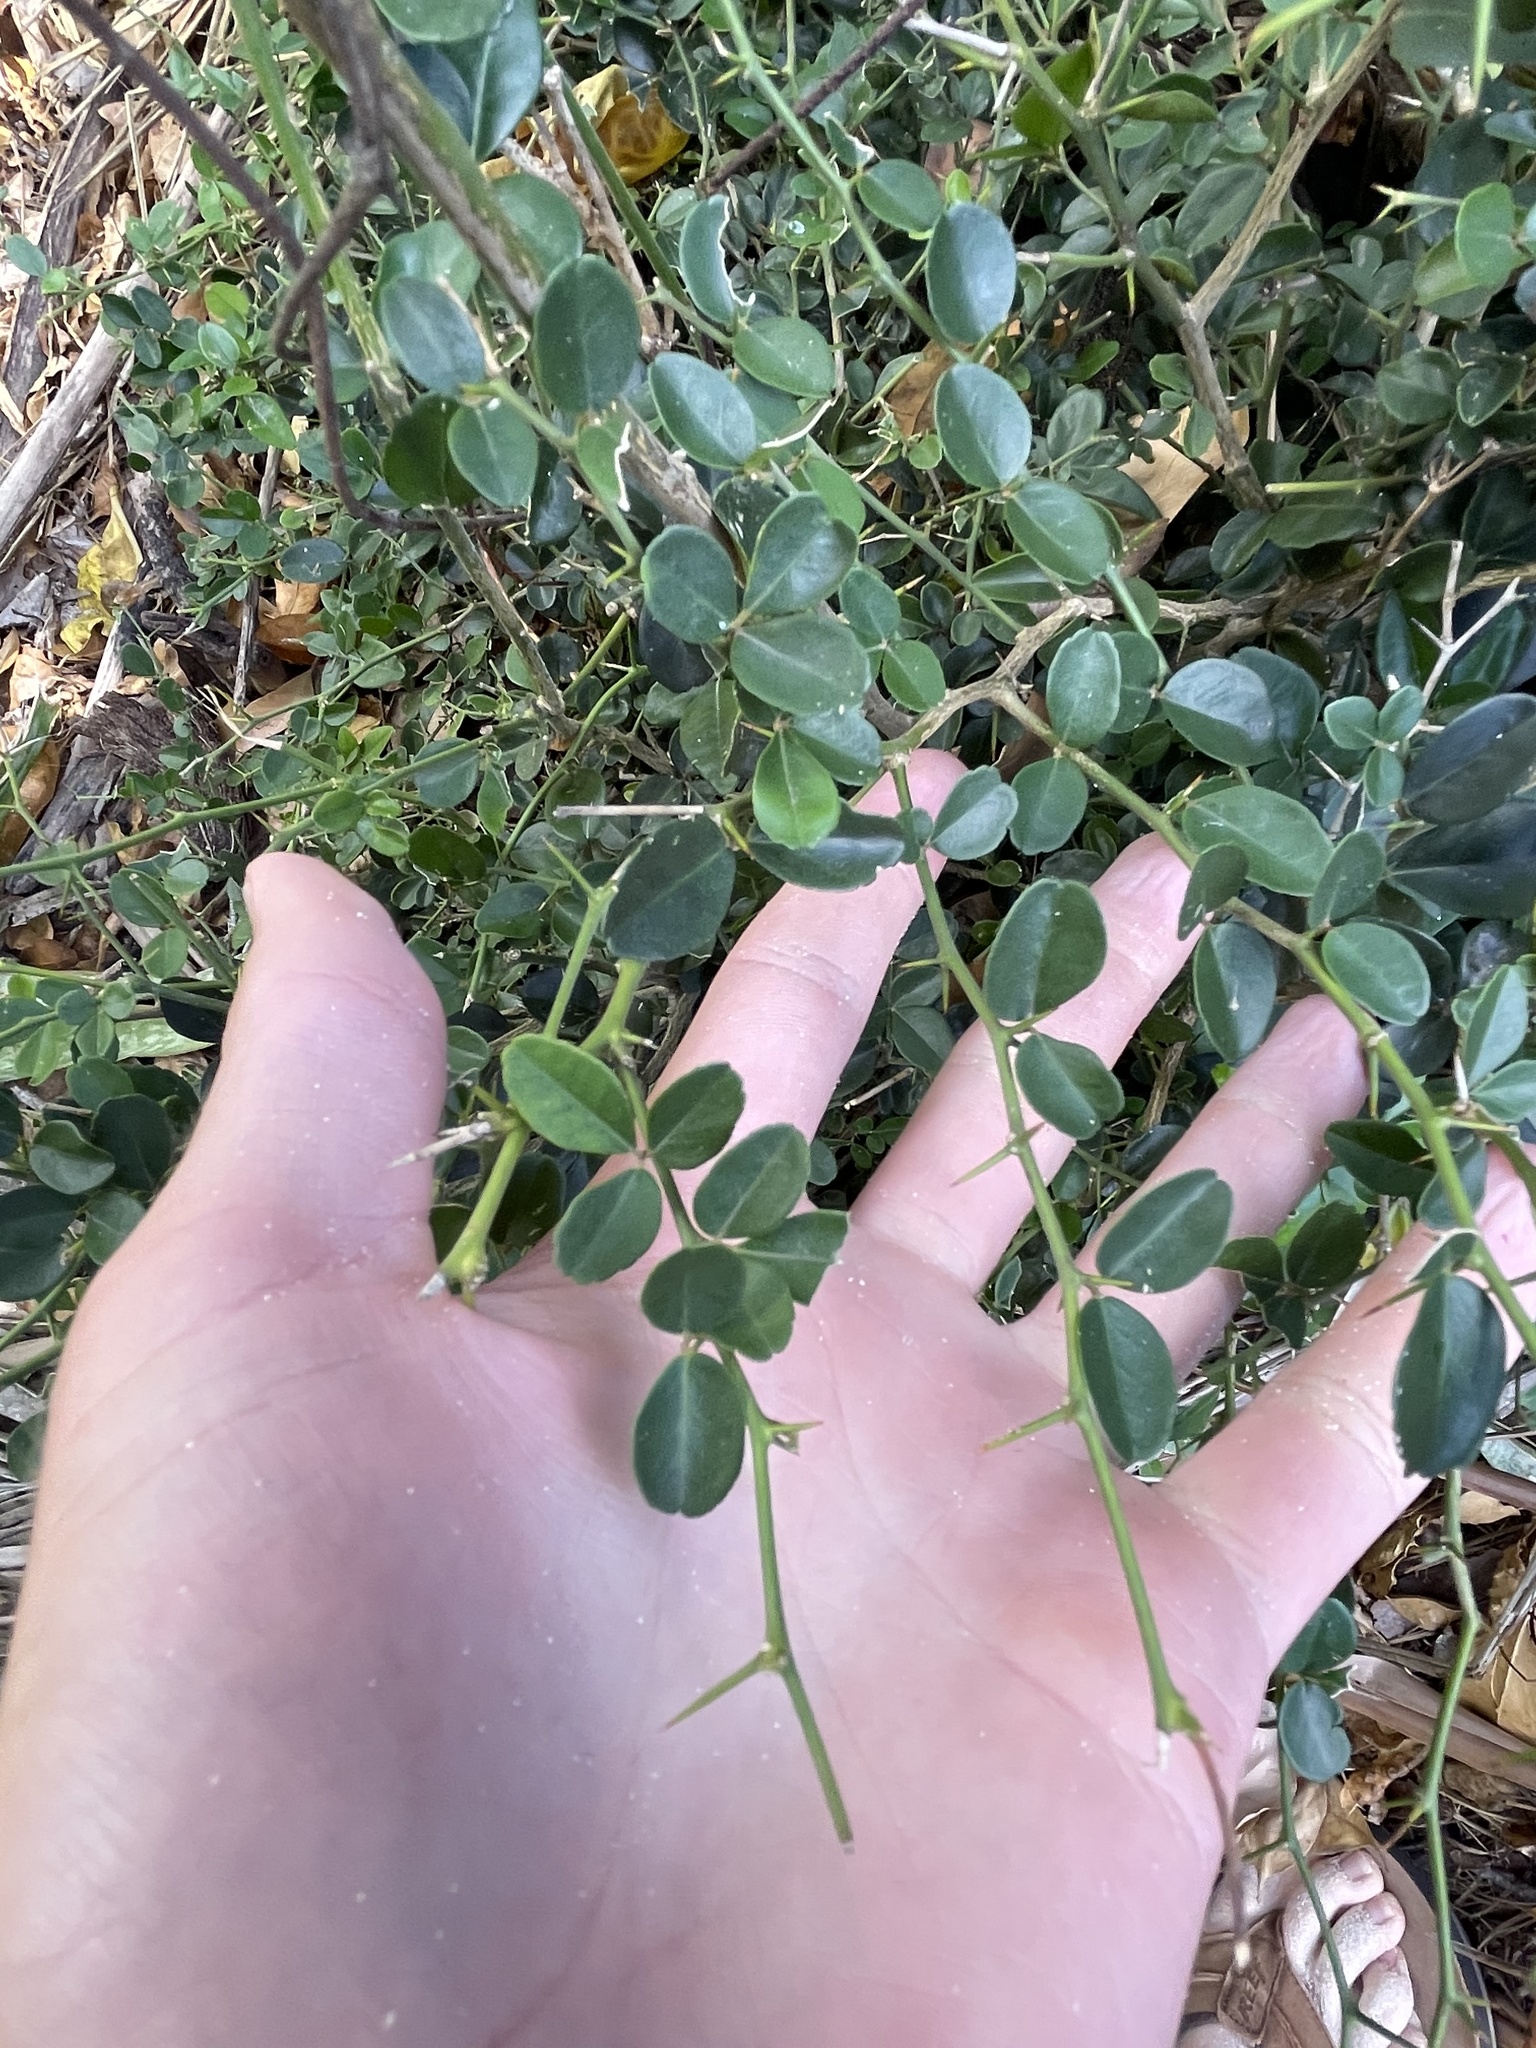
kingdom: Plantae
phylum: Tracheophyta
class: Magnoliopsida
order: Sapindales
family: Rutaceae
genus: Triphasia
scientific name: Triphasia trifolia
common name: Limeberry
